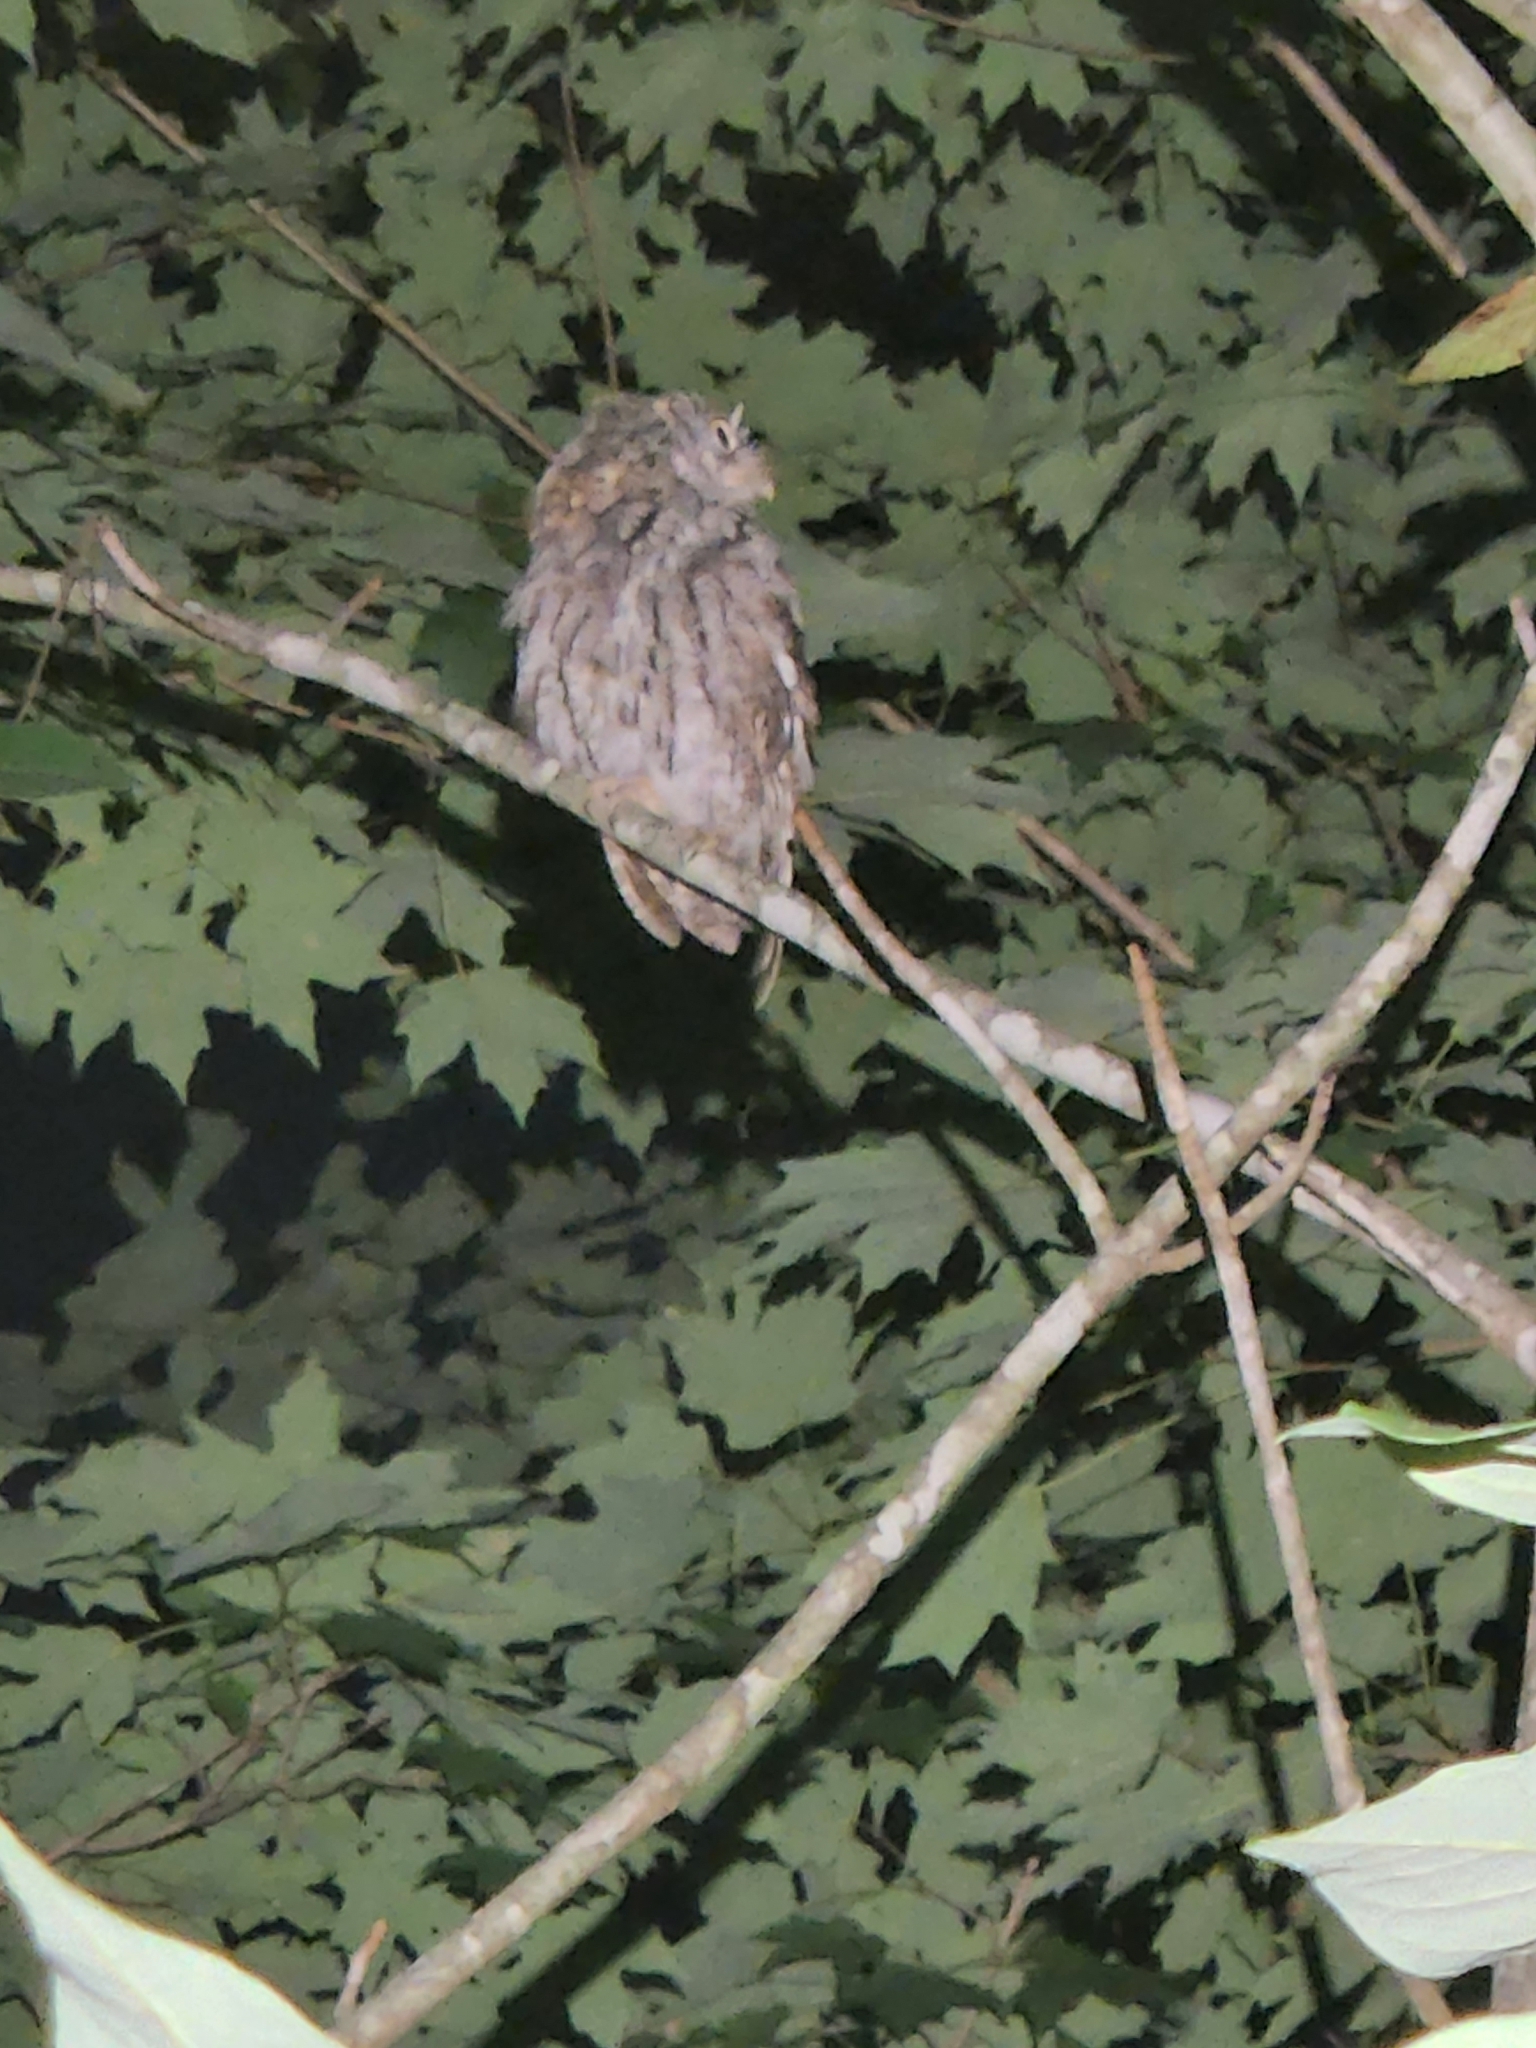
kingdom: Animalia
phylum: Chordata
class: Aves
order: Strigiformes
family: Strigidae
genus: Megascops
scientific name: Megascops asio
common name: Eastern screech-owl
